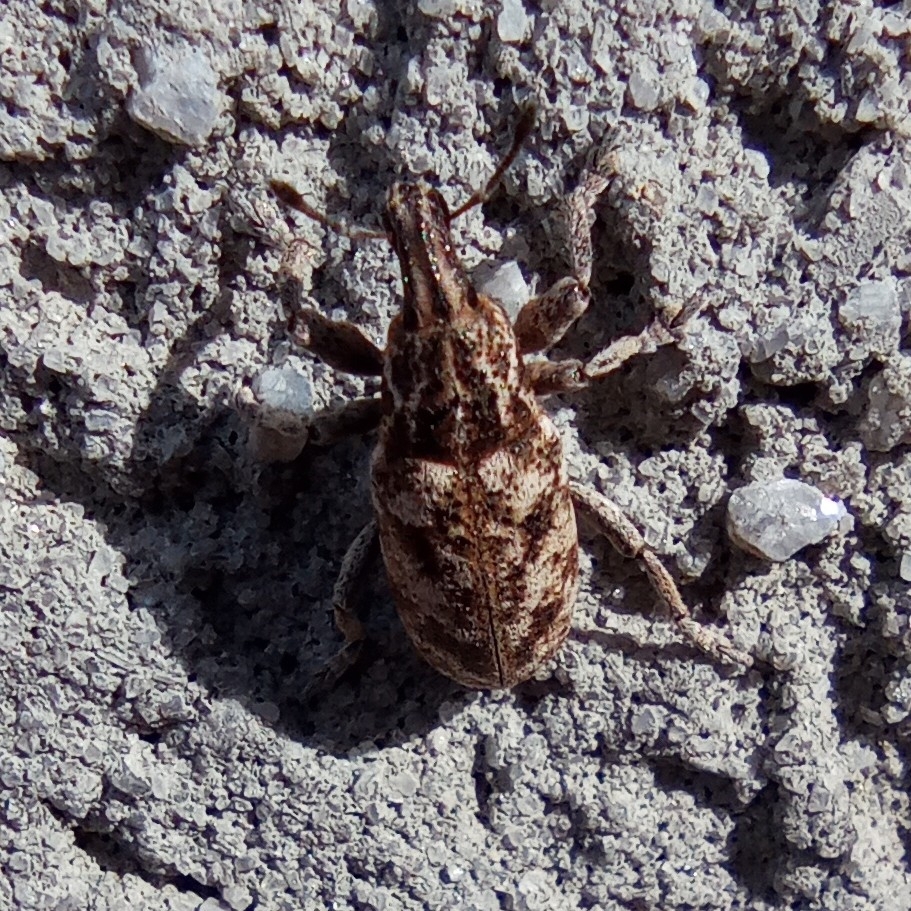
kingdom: Animalia
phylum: Arthropoda
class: Insecta
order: Coleoptera
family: Curculionidae
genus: Cyphocleonus
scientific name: Cyphocleonus dealbatus
